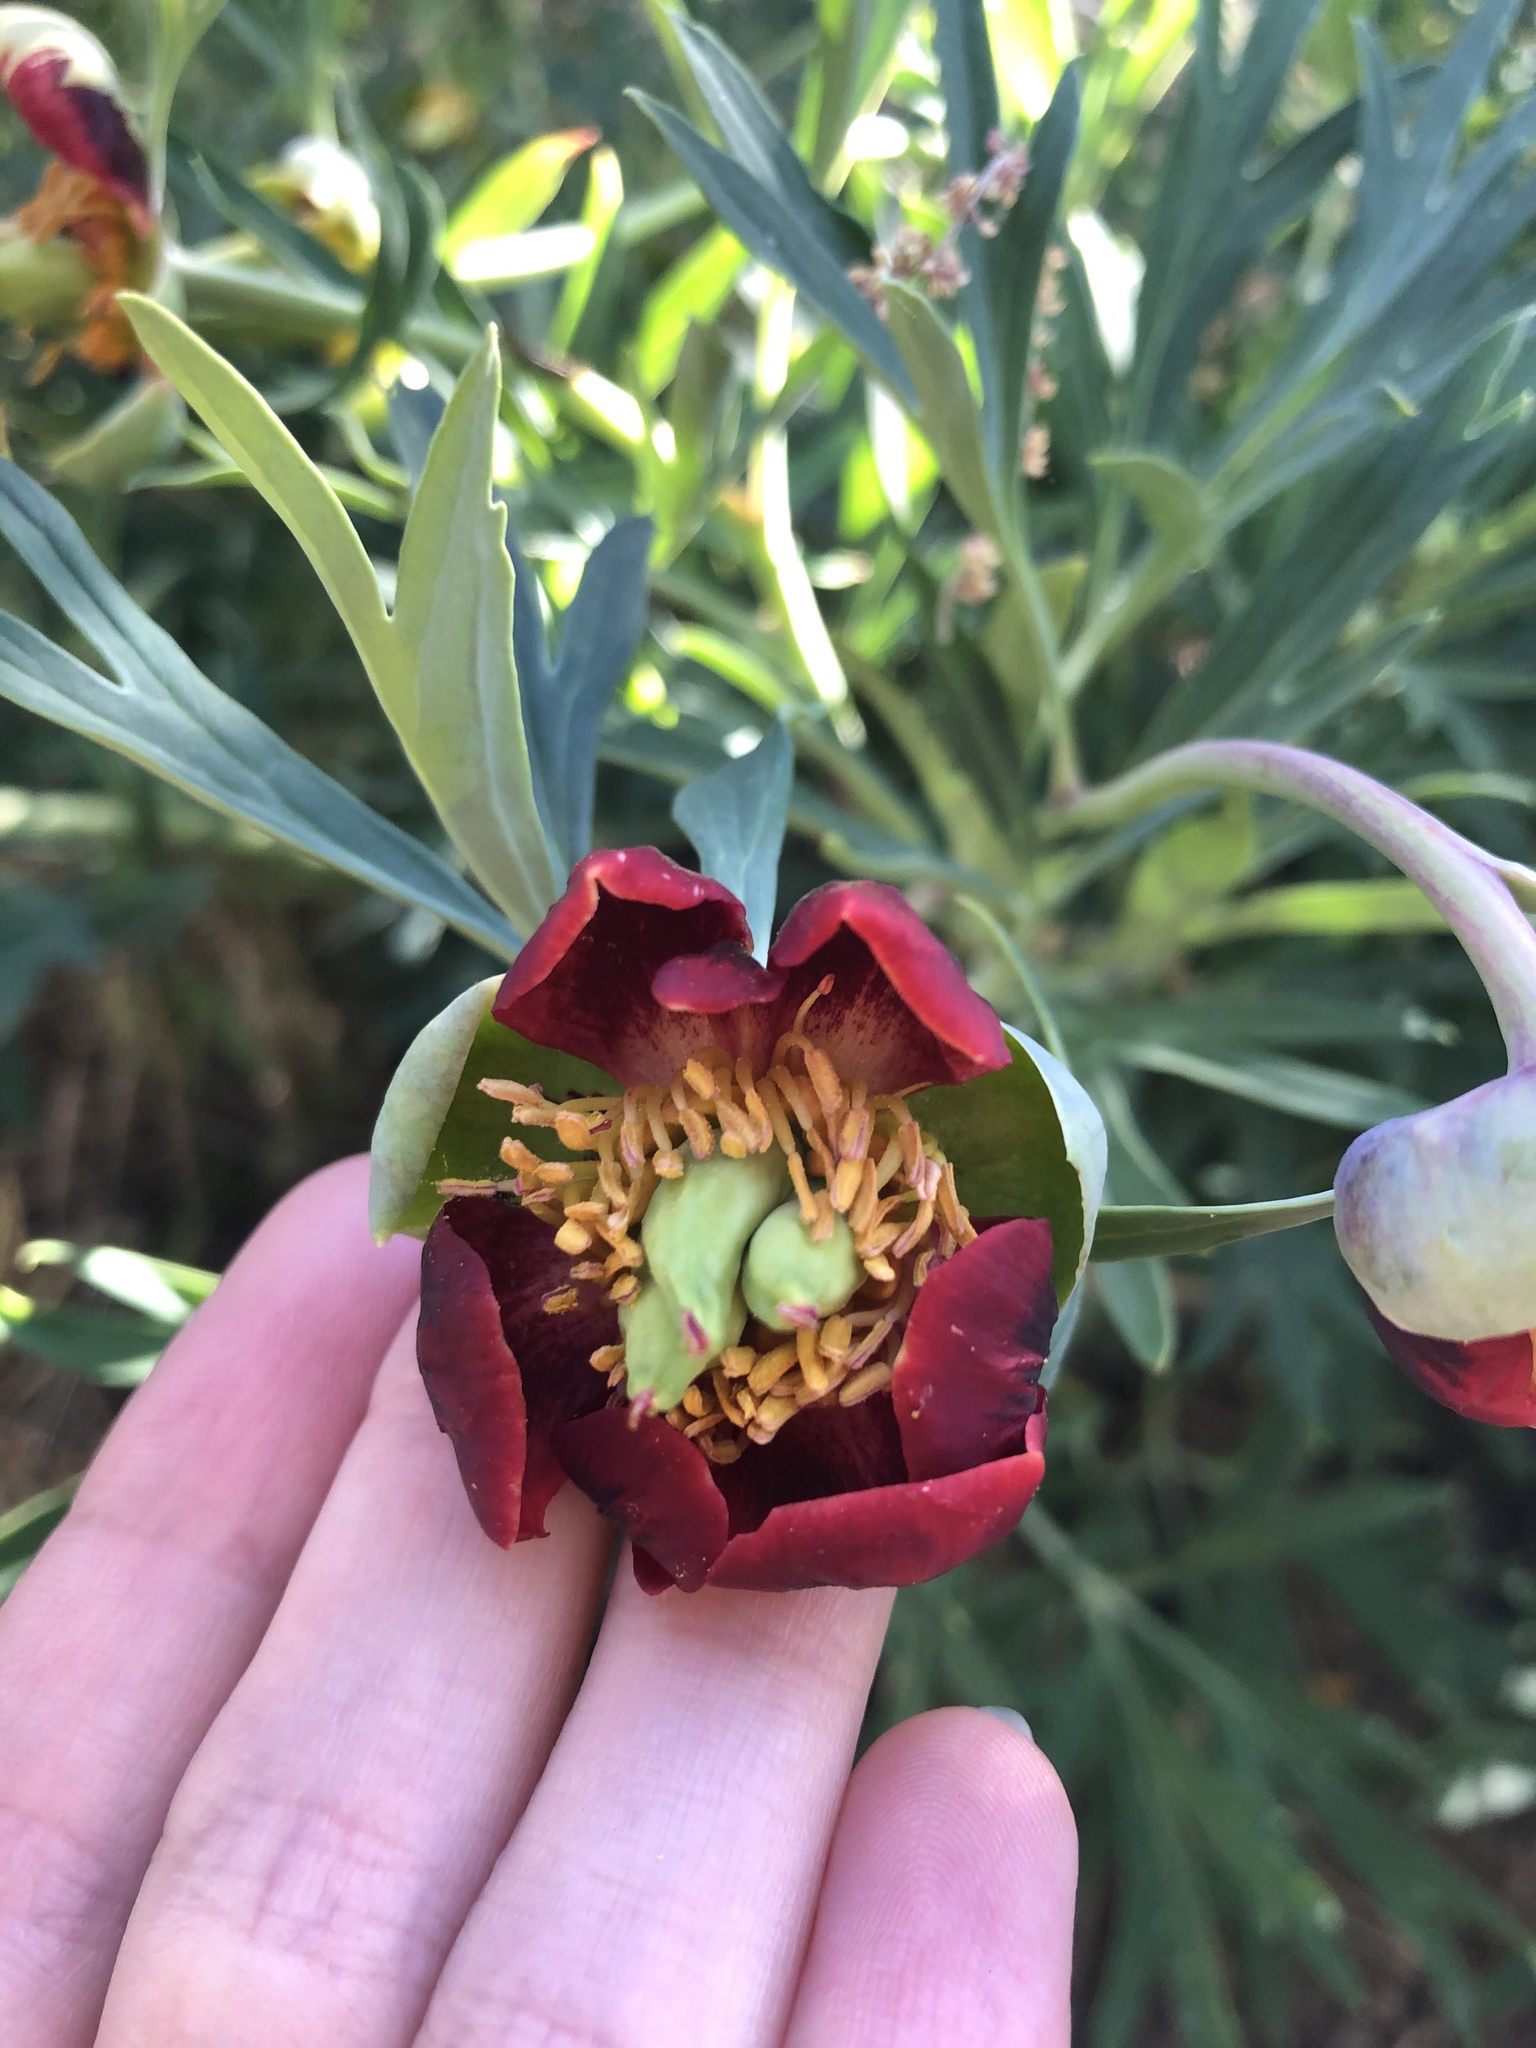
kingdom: Plantae
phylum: Tracheophyta
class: Magnoliopsida
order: Saxifragales
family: Paeoniaceae
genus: Paeonia
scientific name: Paeonia californica
